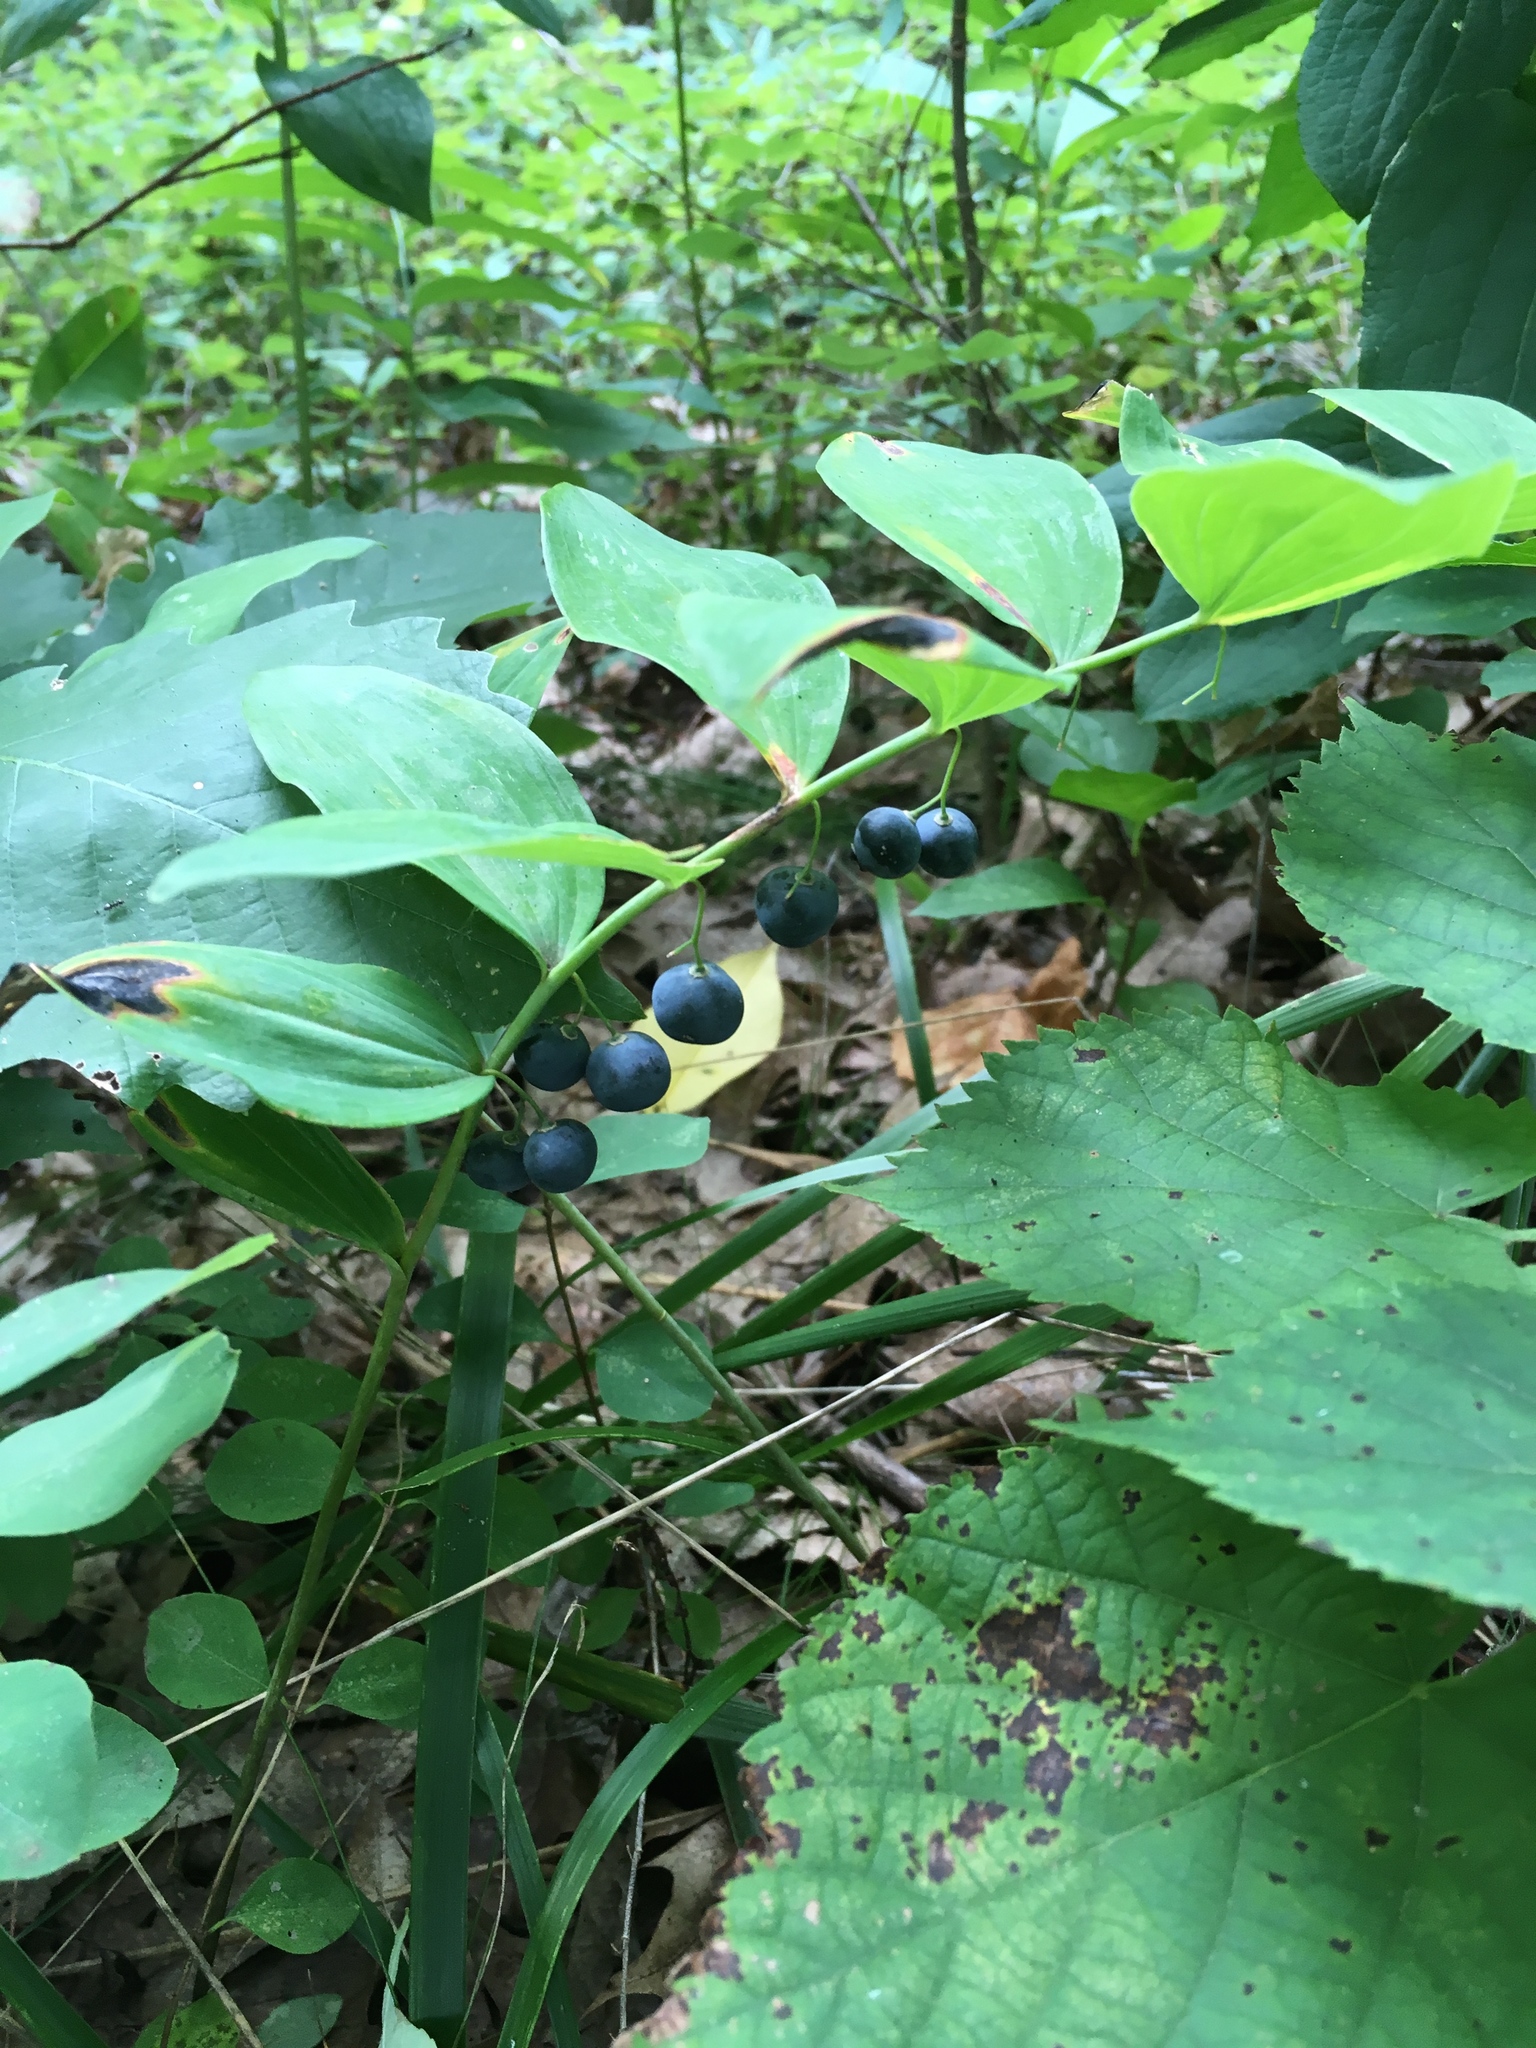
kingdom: Plantae
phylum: Tracheophyta
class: Liliopsida
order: Asparagales
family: Asparagaceae
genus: Polygonatum
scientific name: Polygonatum pubescens
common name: Downy solomon's seal
